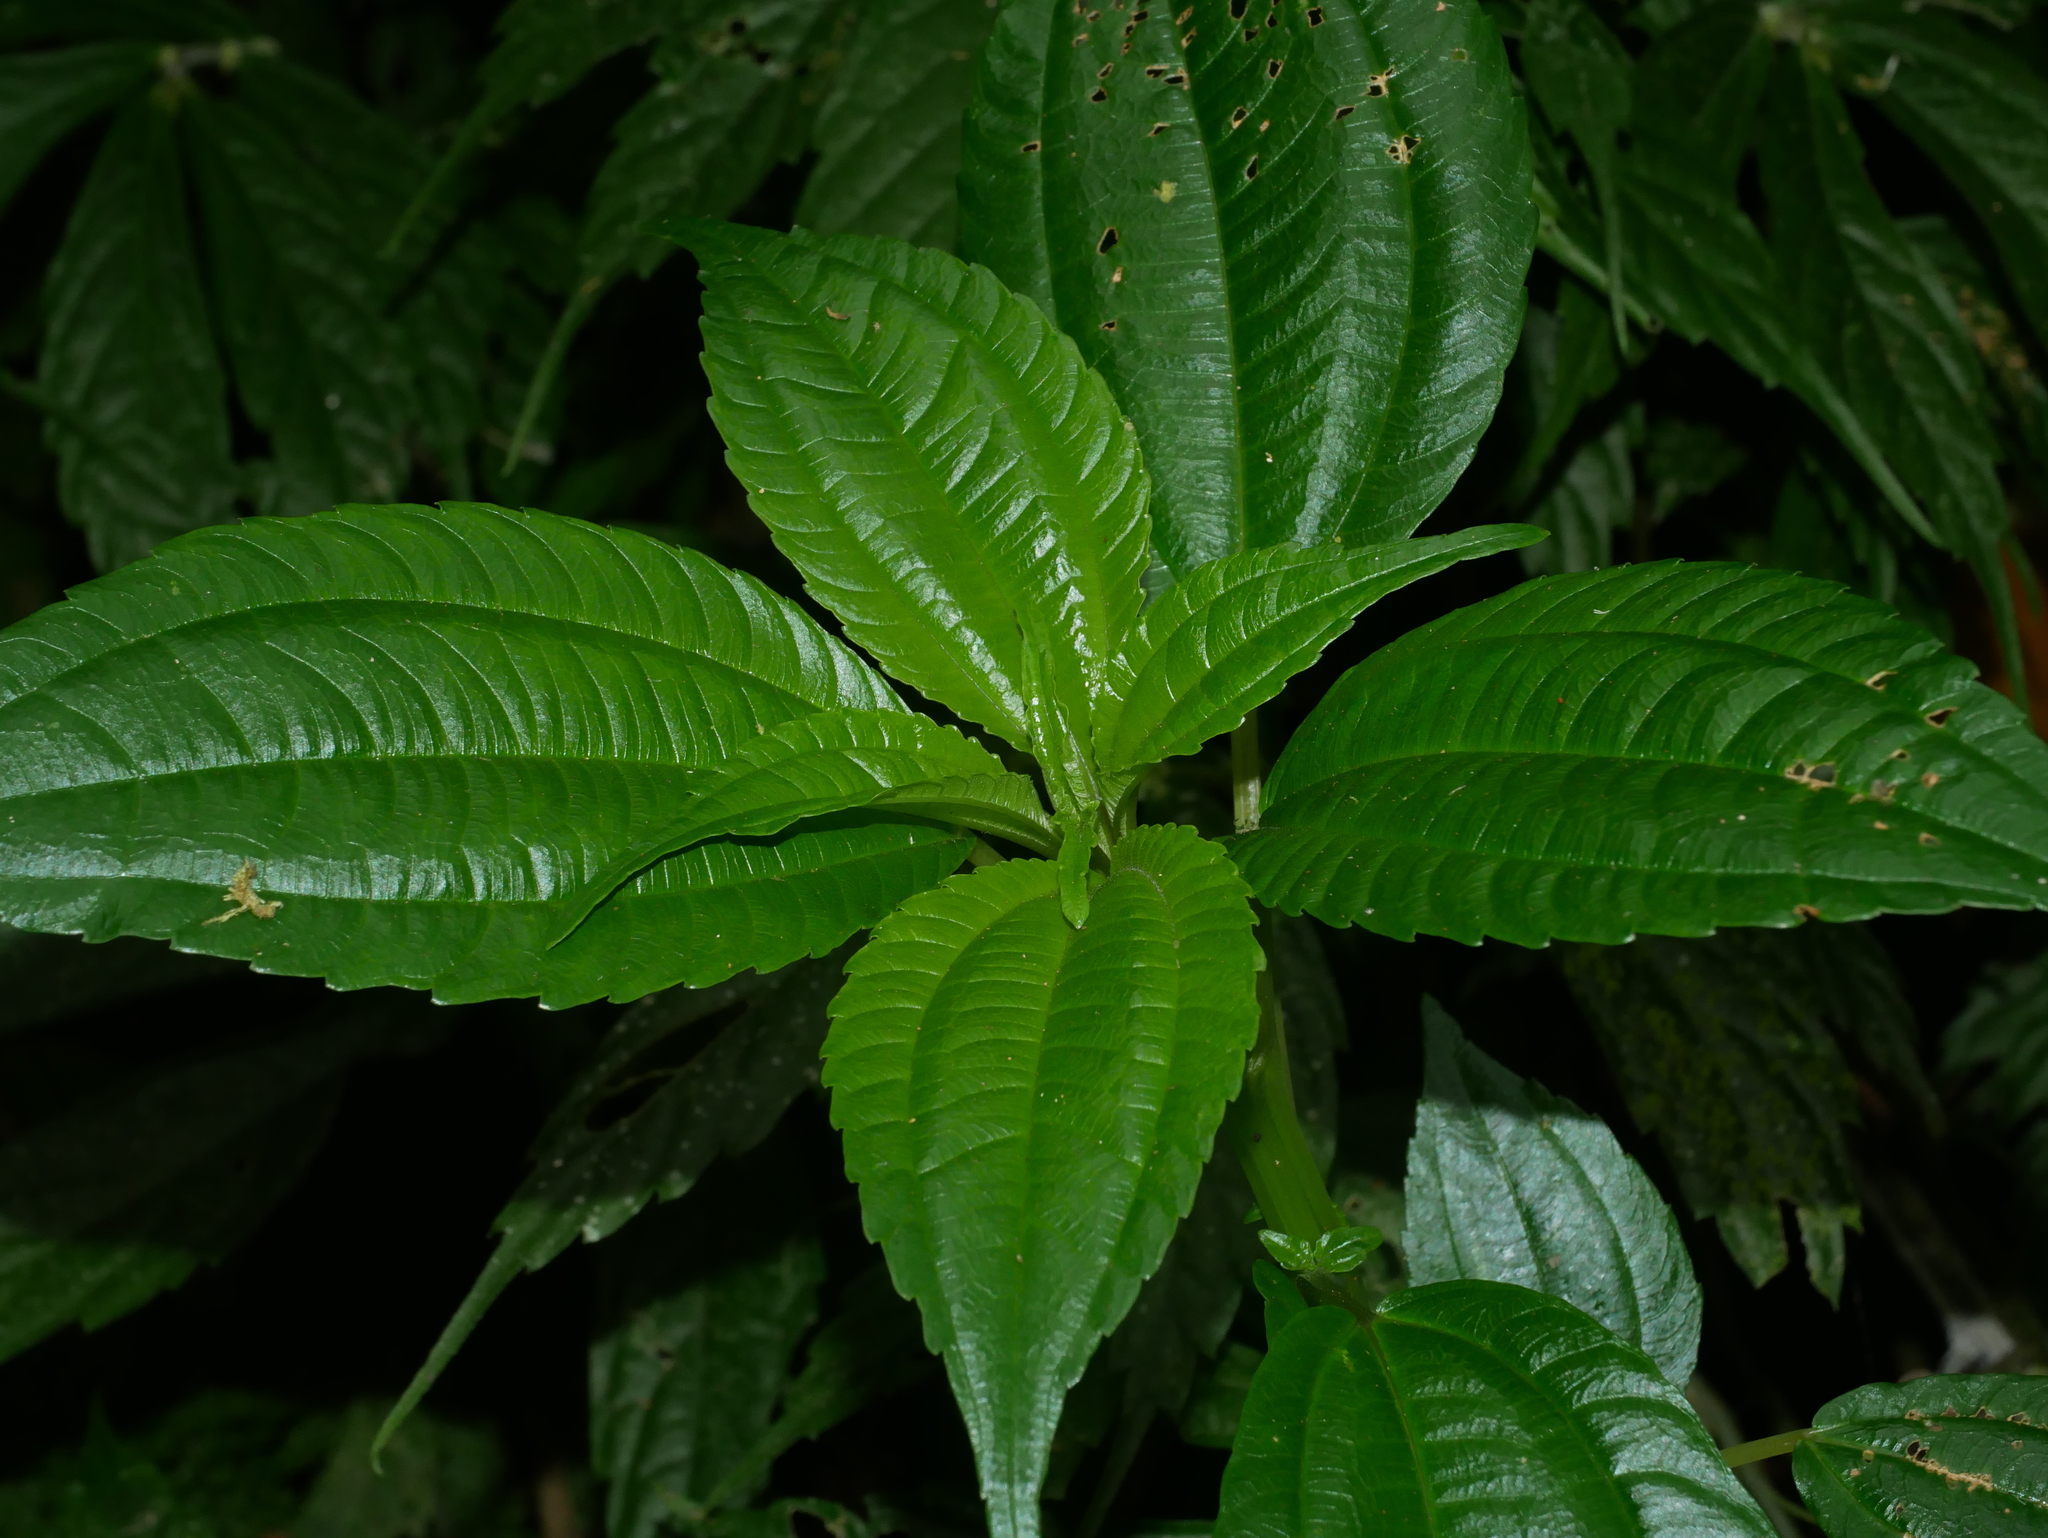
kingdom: Plantae
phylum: Tracheophyta
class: Magnoliopsida
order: Rosales
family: Urticaceae
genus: Pilea
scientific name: Pilea melastomoides
